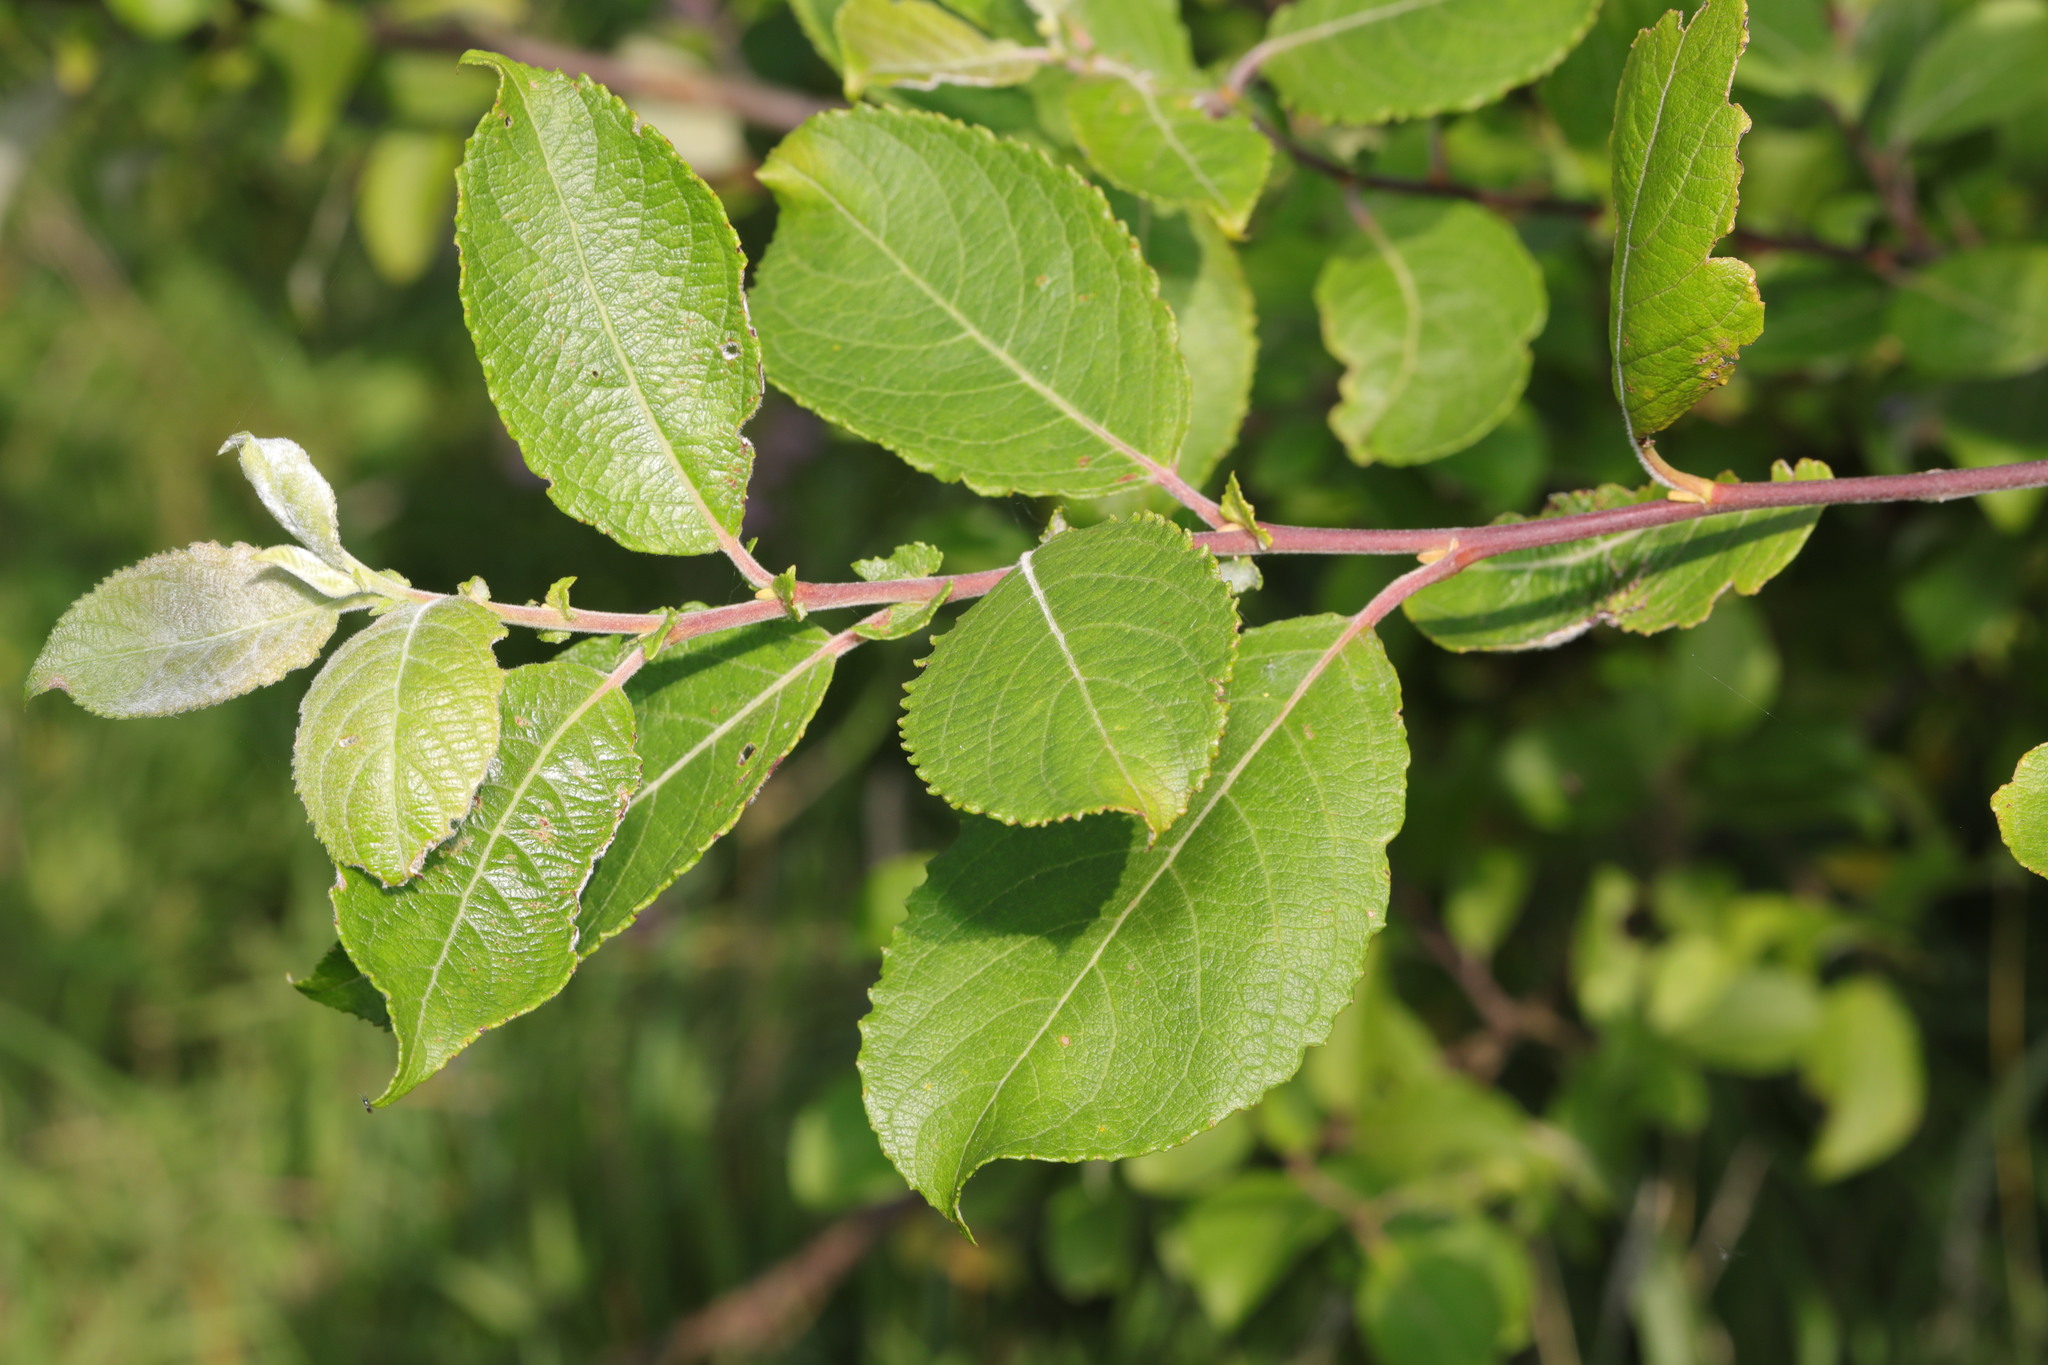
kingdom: Plantae
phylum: Tracheophyta
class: Magnoliopsida
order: Malpighiales
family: Salicaceae
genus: Salix
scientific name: Salix caprea
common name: Goat willow
